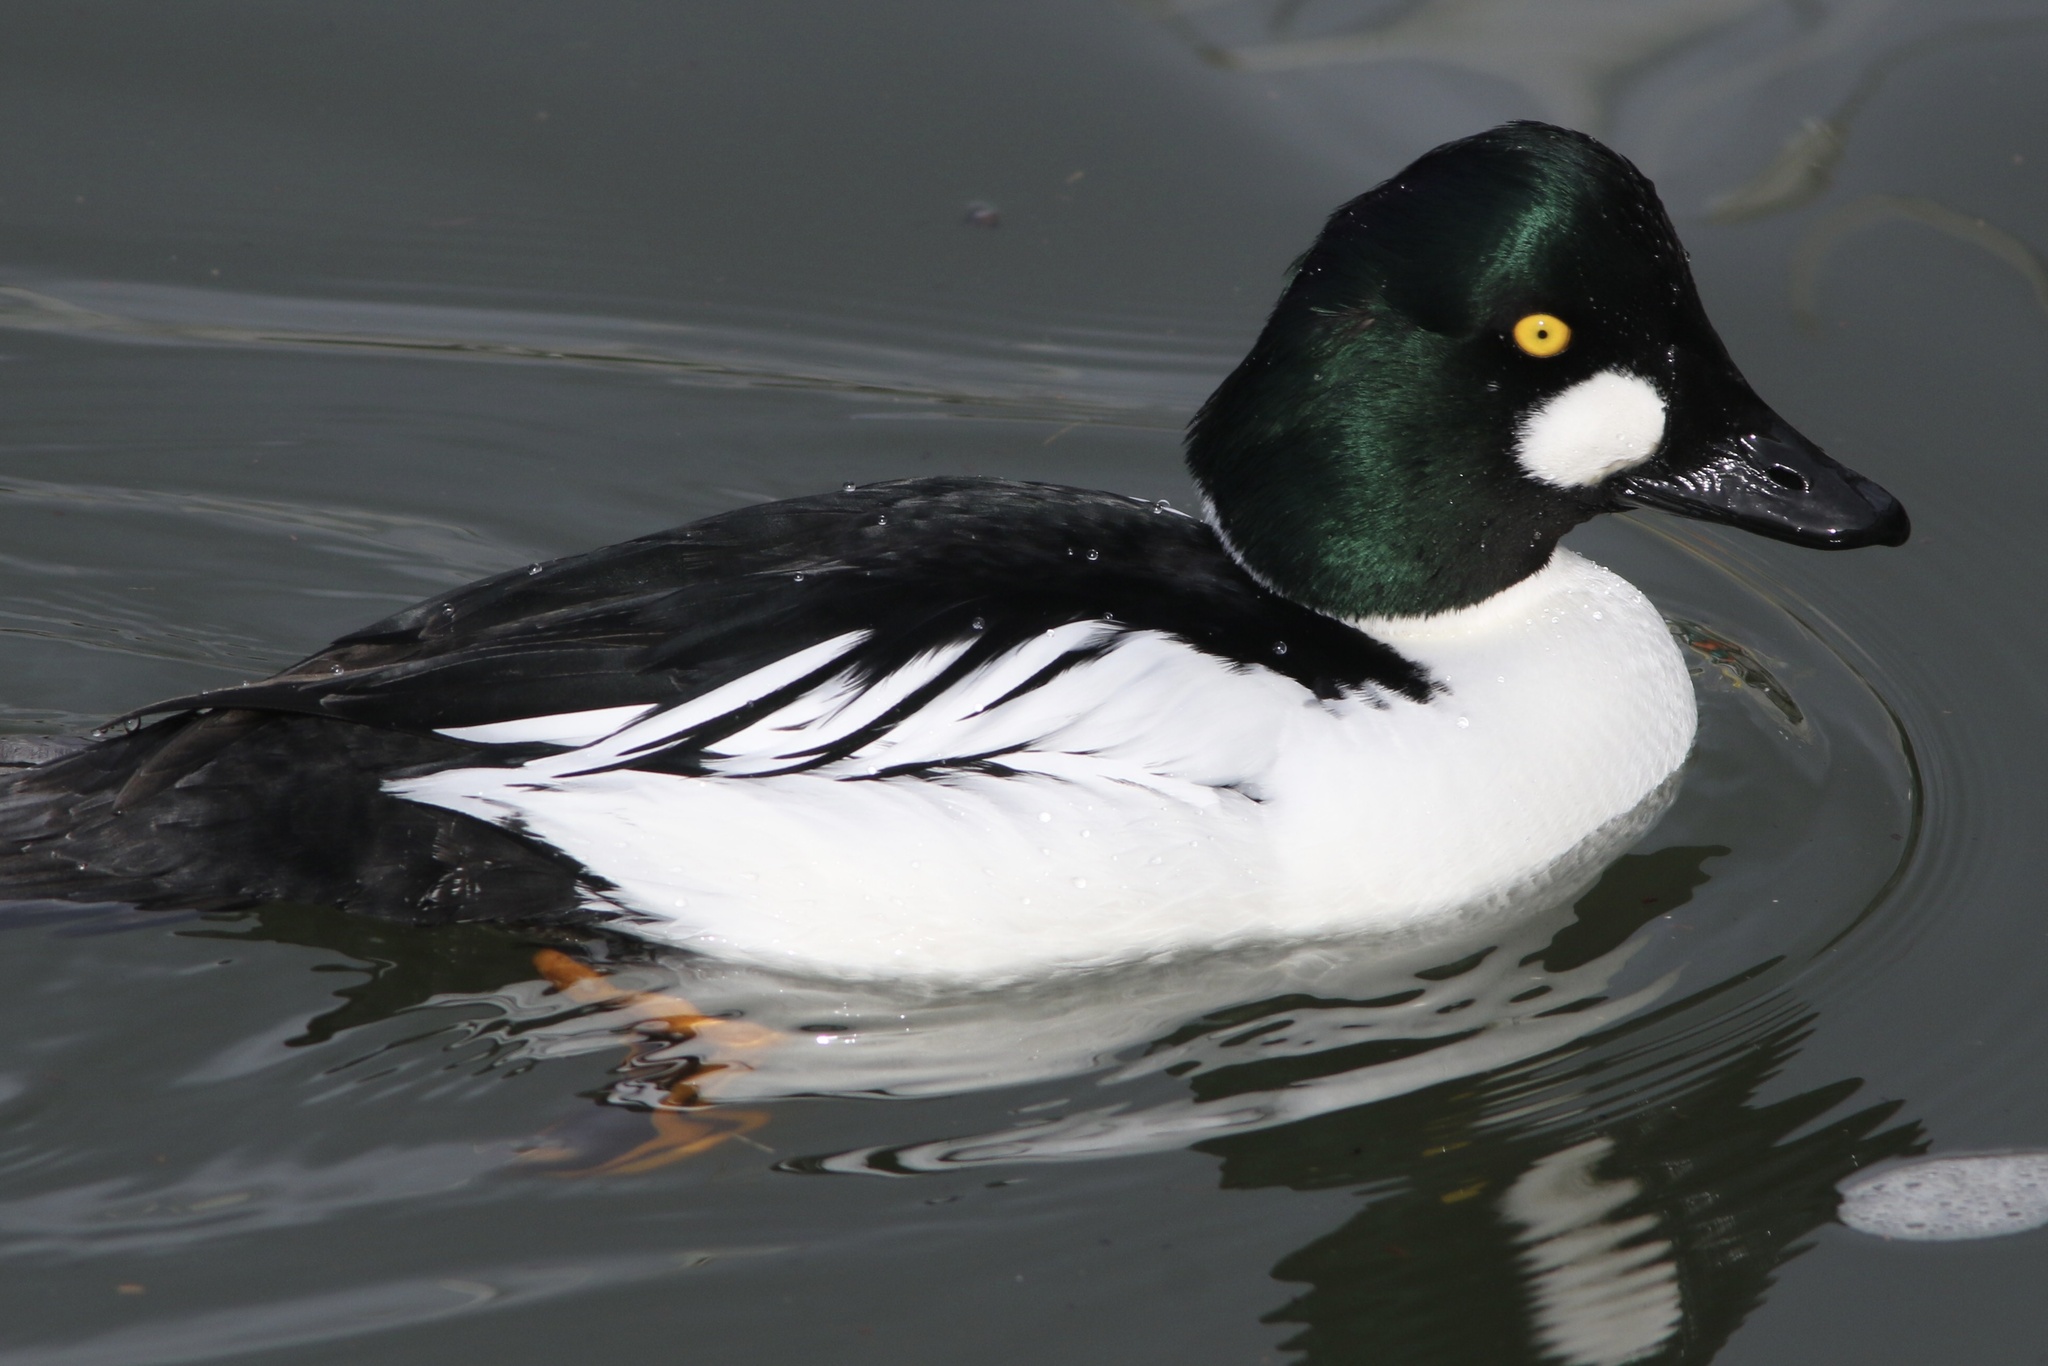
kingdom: Animalia
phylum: Chordata
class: Aves
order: Anseriformes
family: Anatidae
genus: Bucephala
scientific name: Bucephala clangula
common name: Common goldeneye
